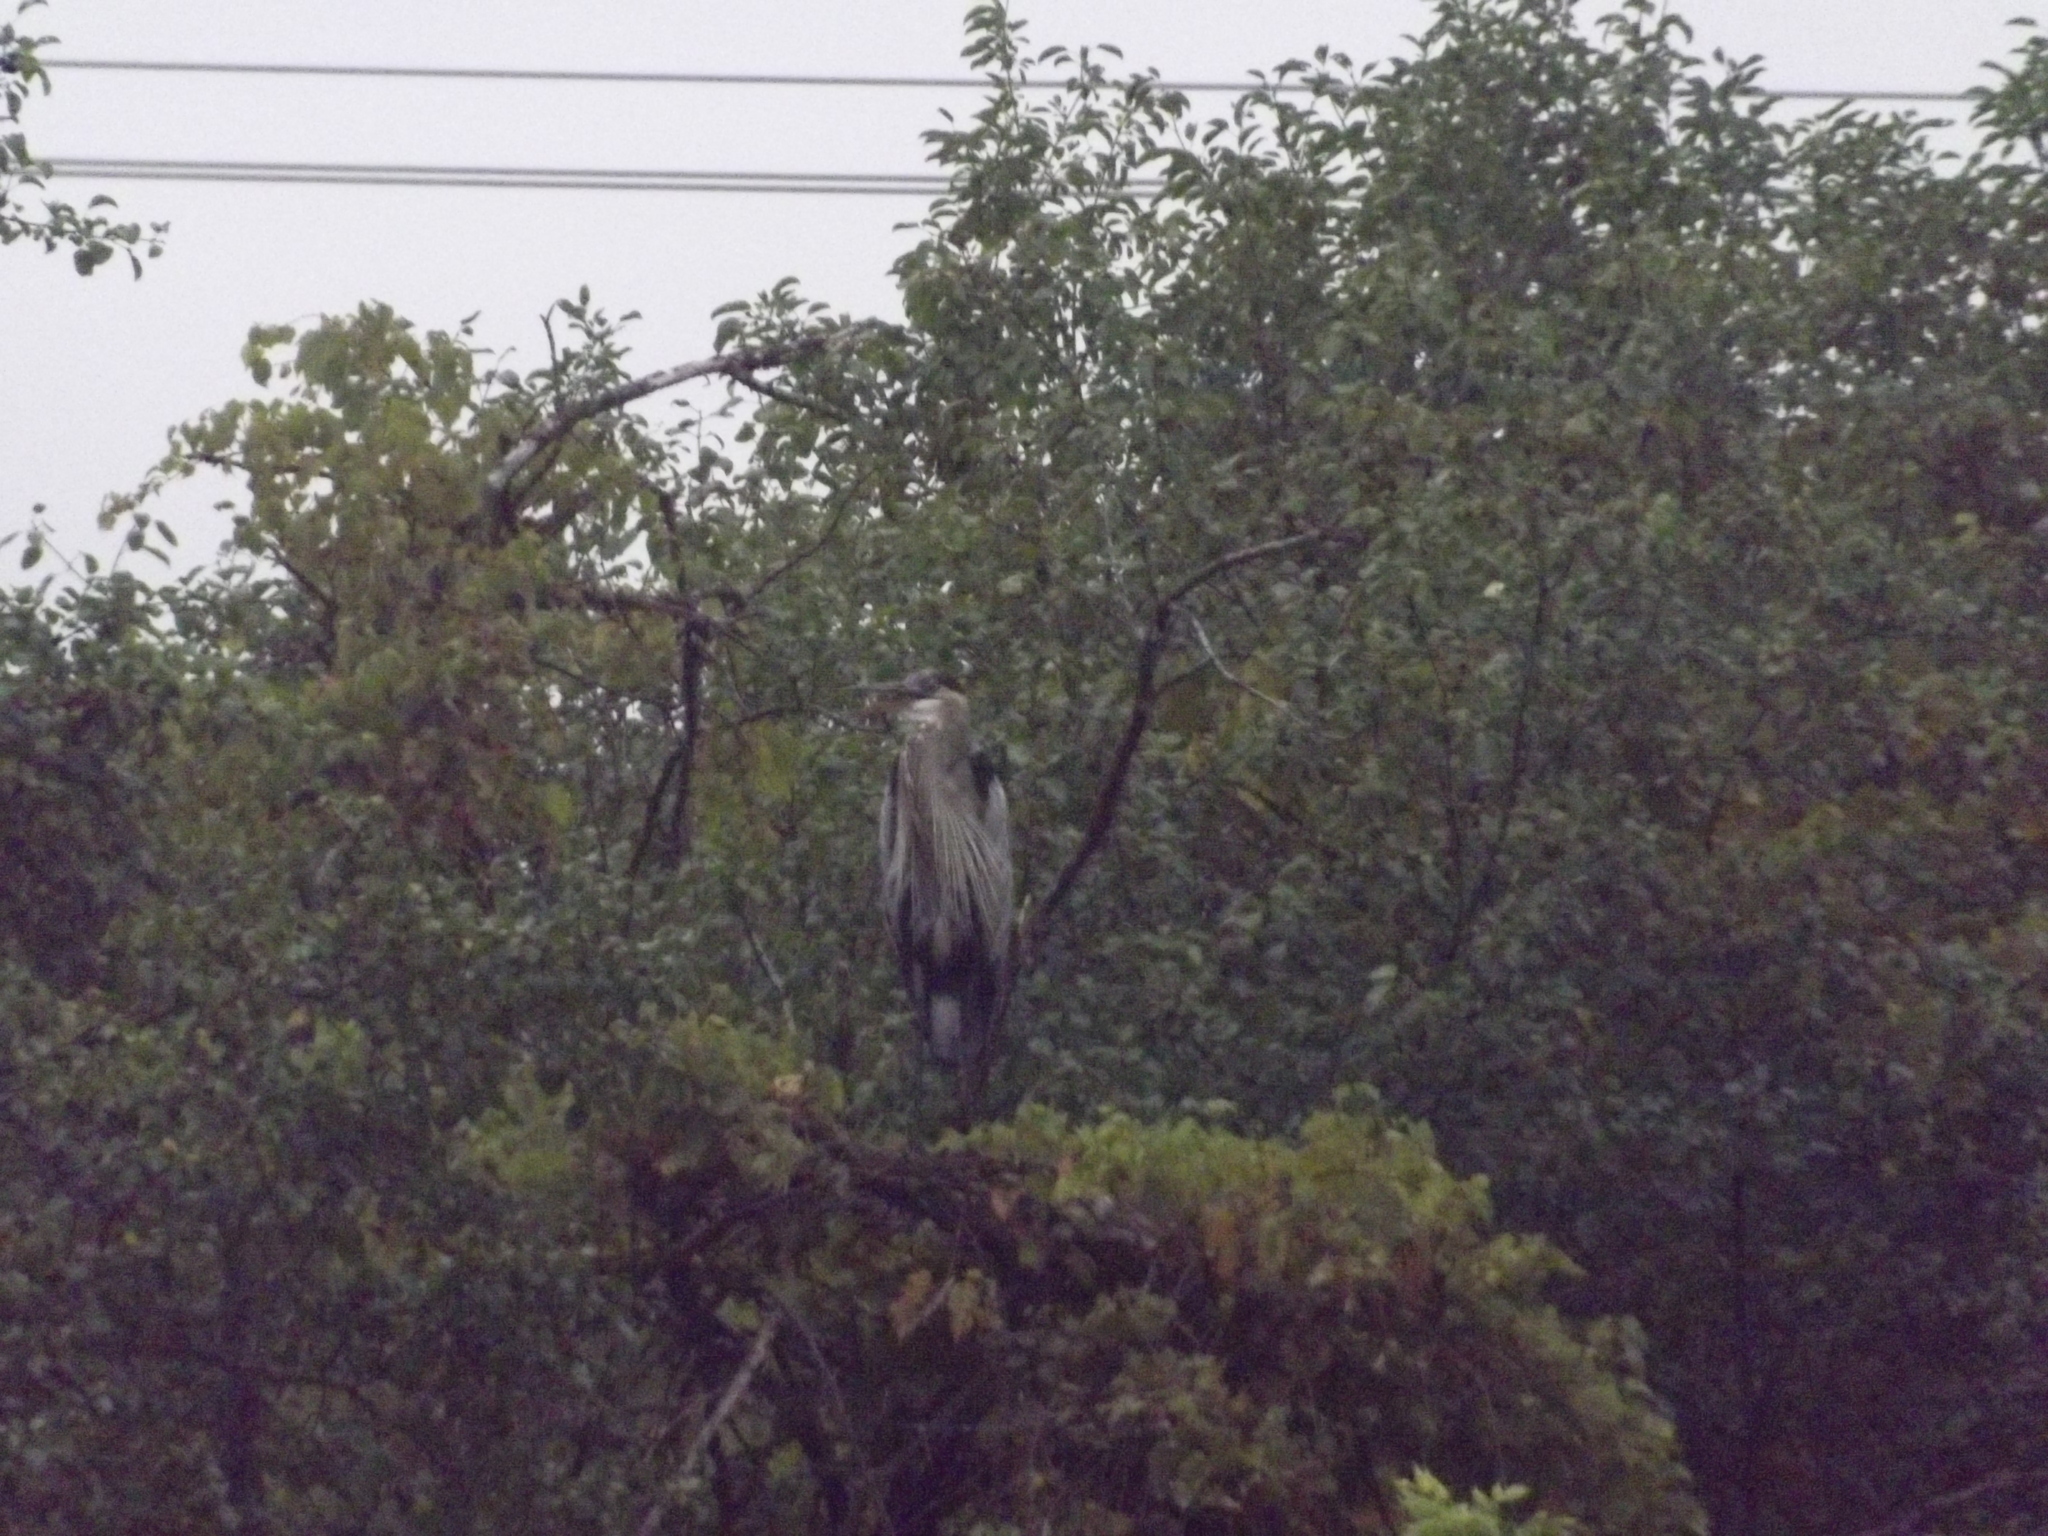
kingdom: Animalia
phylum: Chordata
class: Aves
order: Pelecaniformes
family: Ardeidae
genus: Ardea
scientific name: Ardea herodias
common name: Great blue heron
